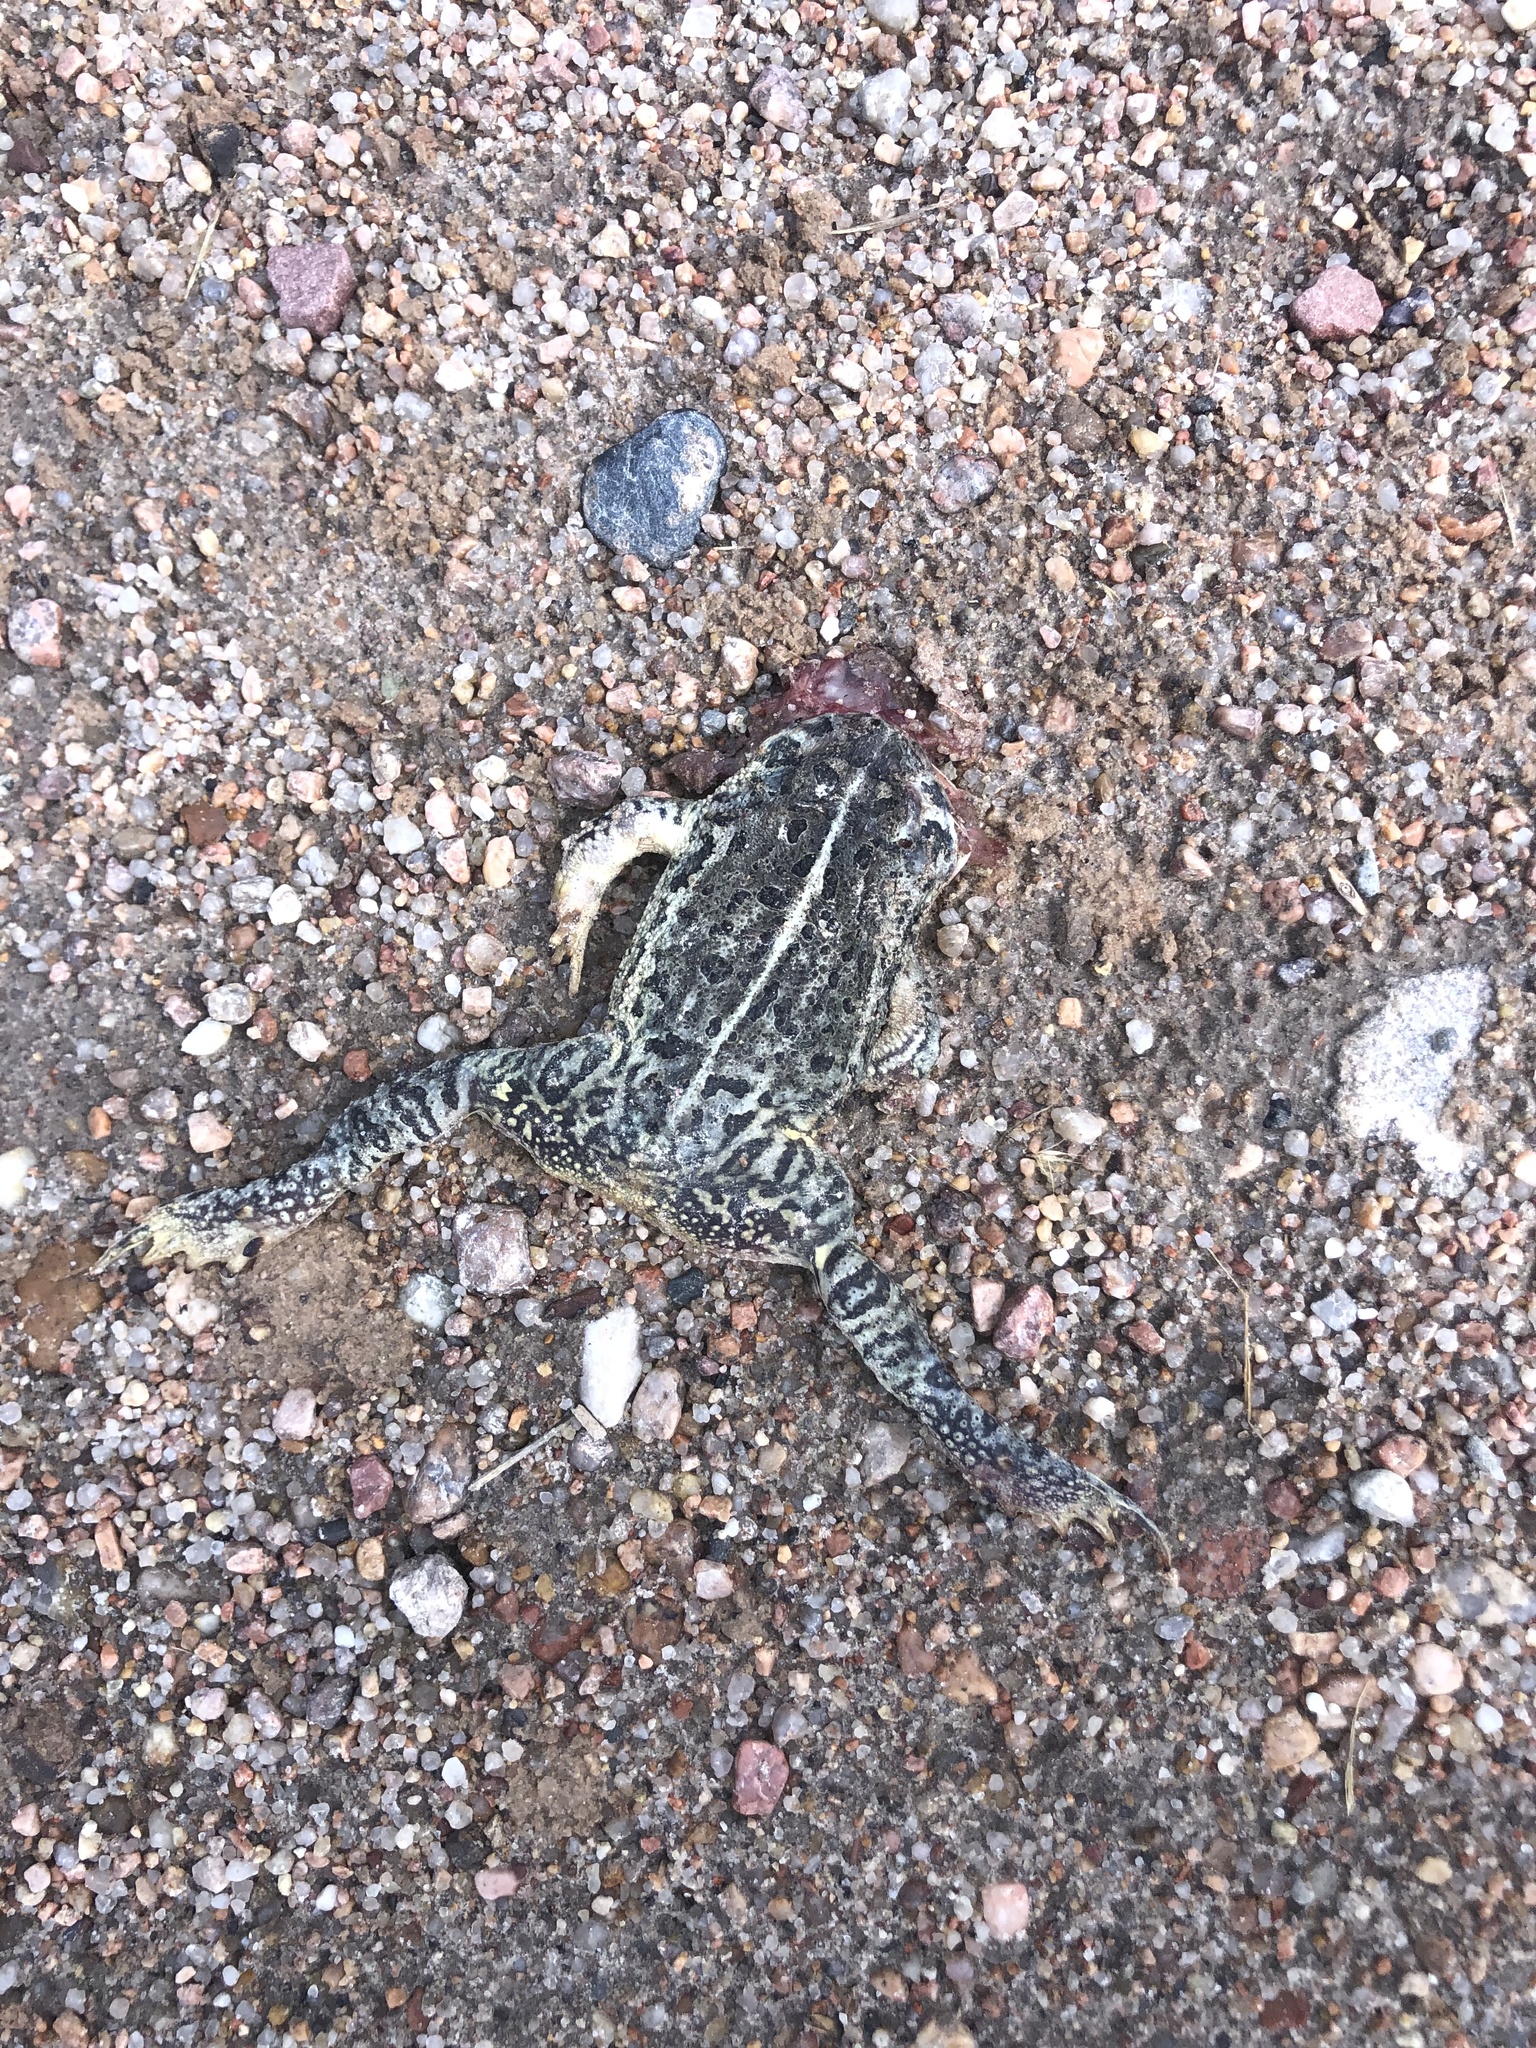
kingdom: Animalia
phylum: Chordata
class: Amphibia
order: Anura
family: Bufonidae
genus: Anaxyrus
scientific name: Anaxyrus woodhousii
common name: Woodhouse's toad
